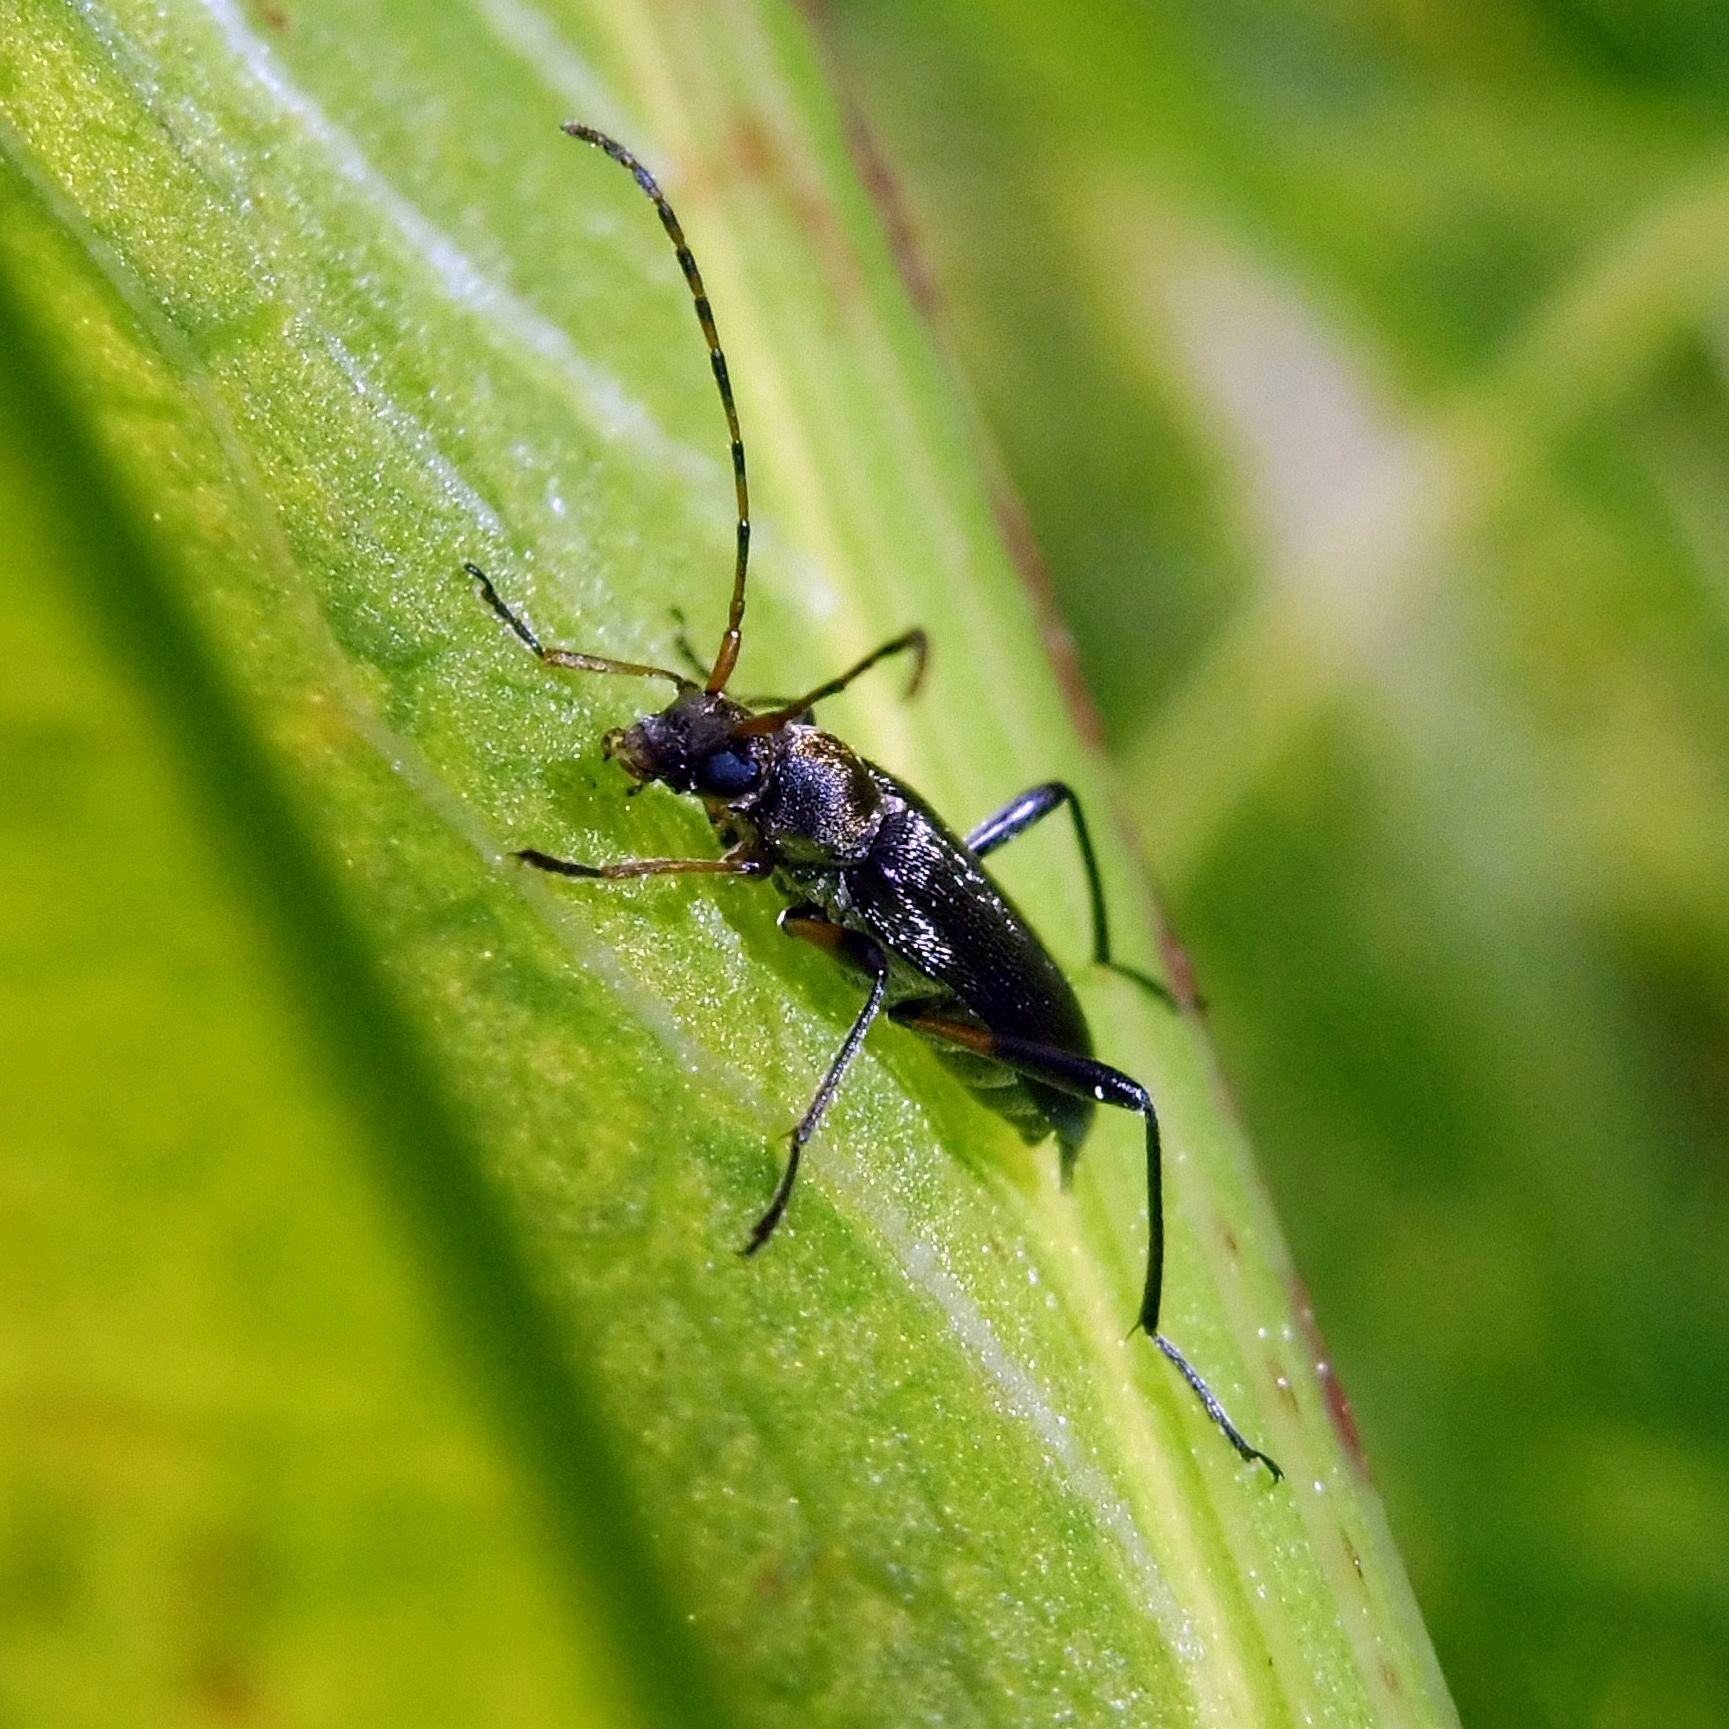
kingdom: Animalia
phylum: Arthropoda
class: Insecta
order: Coleoptera
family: Cerambycidae
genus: Grammoptera
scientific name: Grammoptera ruficornis
